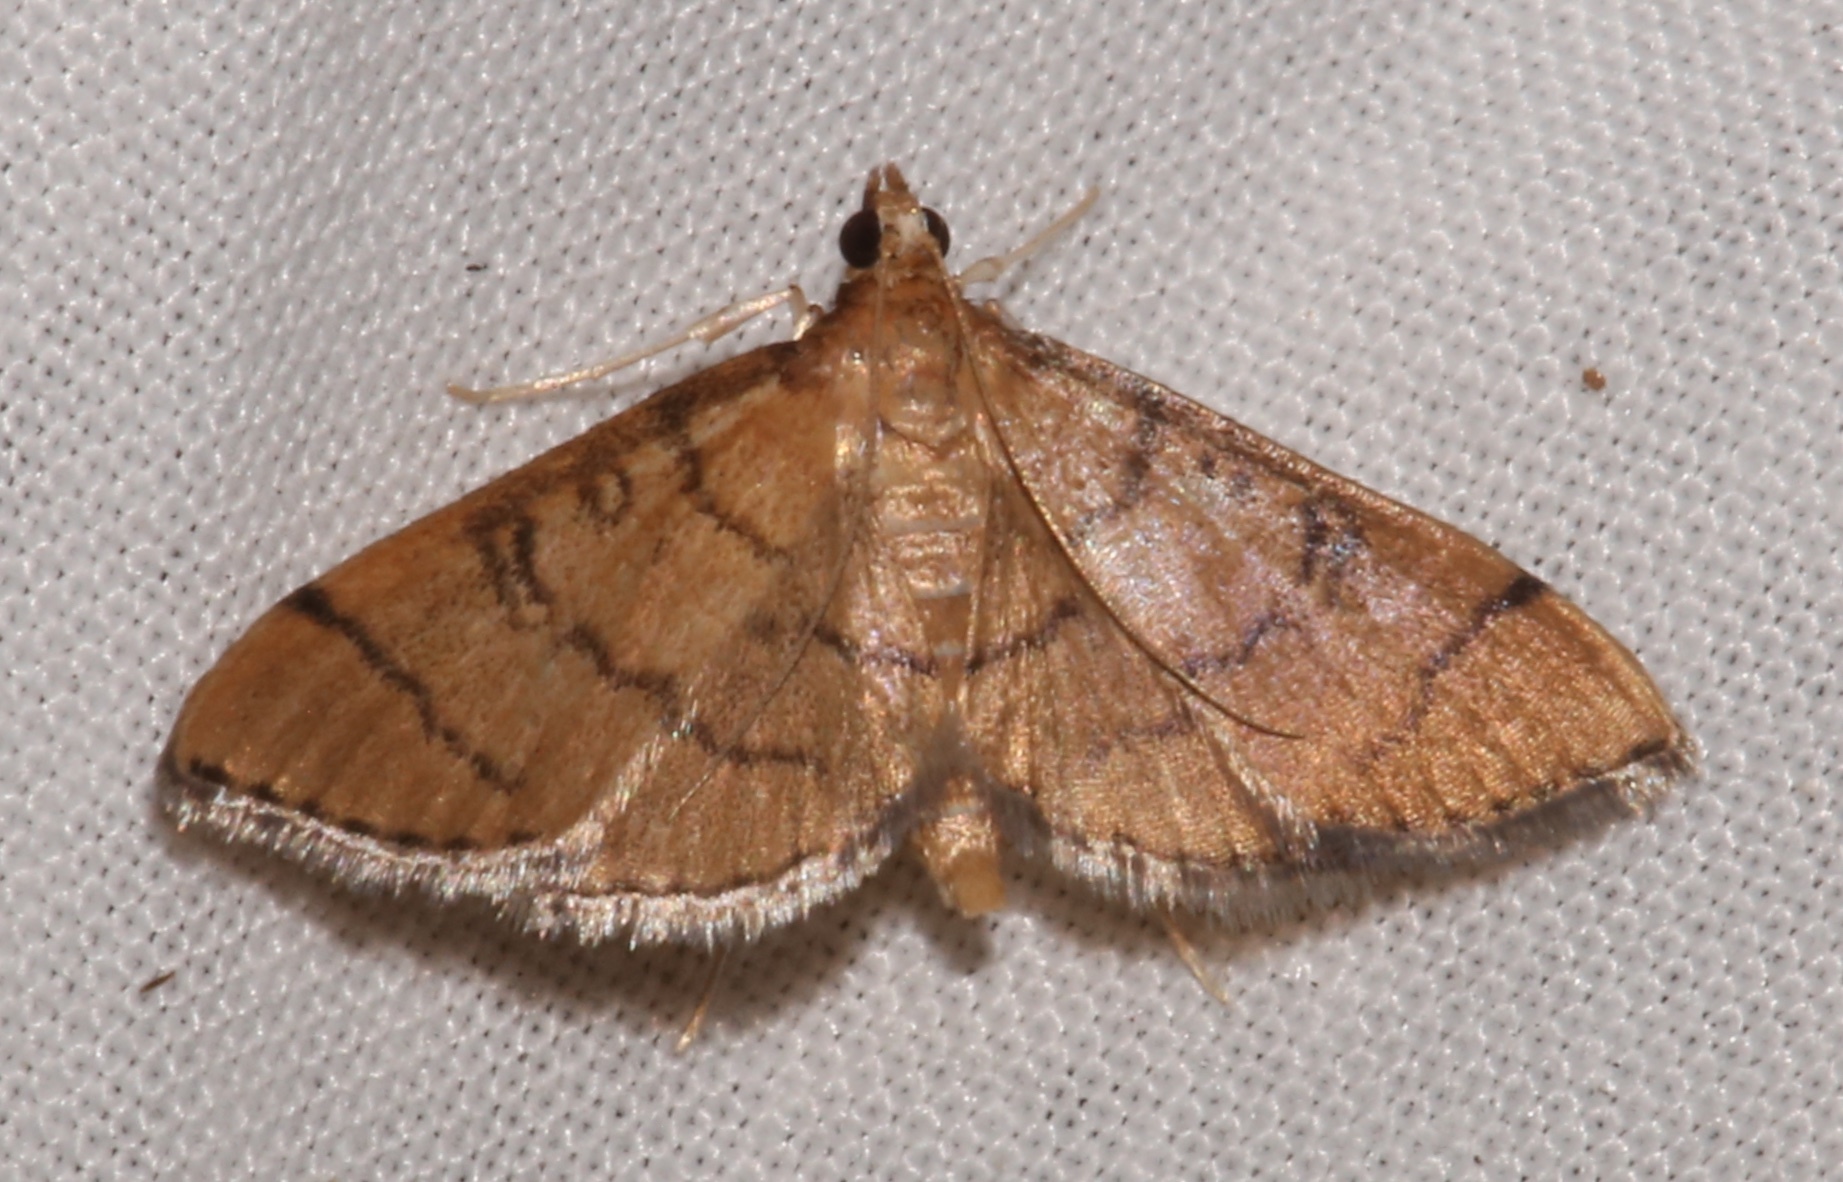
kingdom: Animalia
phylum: Arthropoda
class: Insecta
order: Lepidoptera
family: Crambidae
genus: Lamprosema
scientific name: Lamprosema Blepharomastix ranalis
